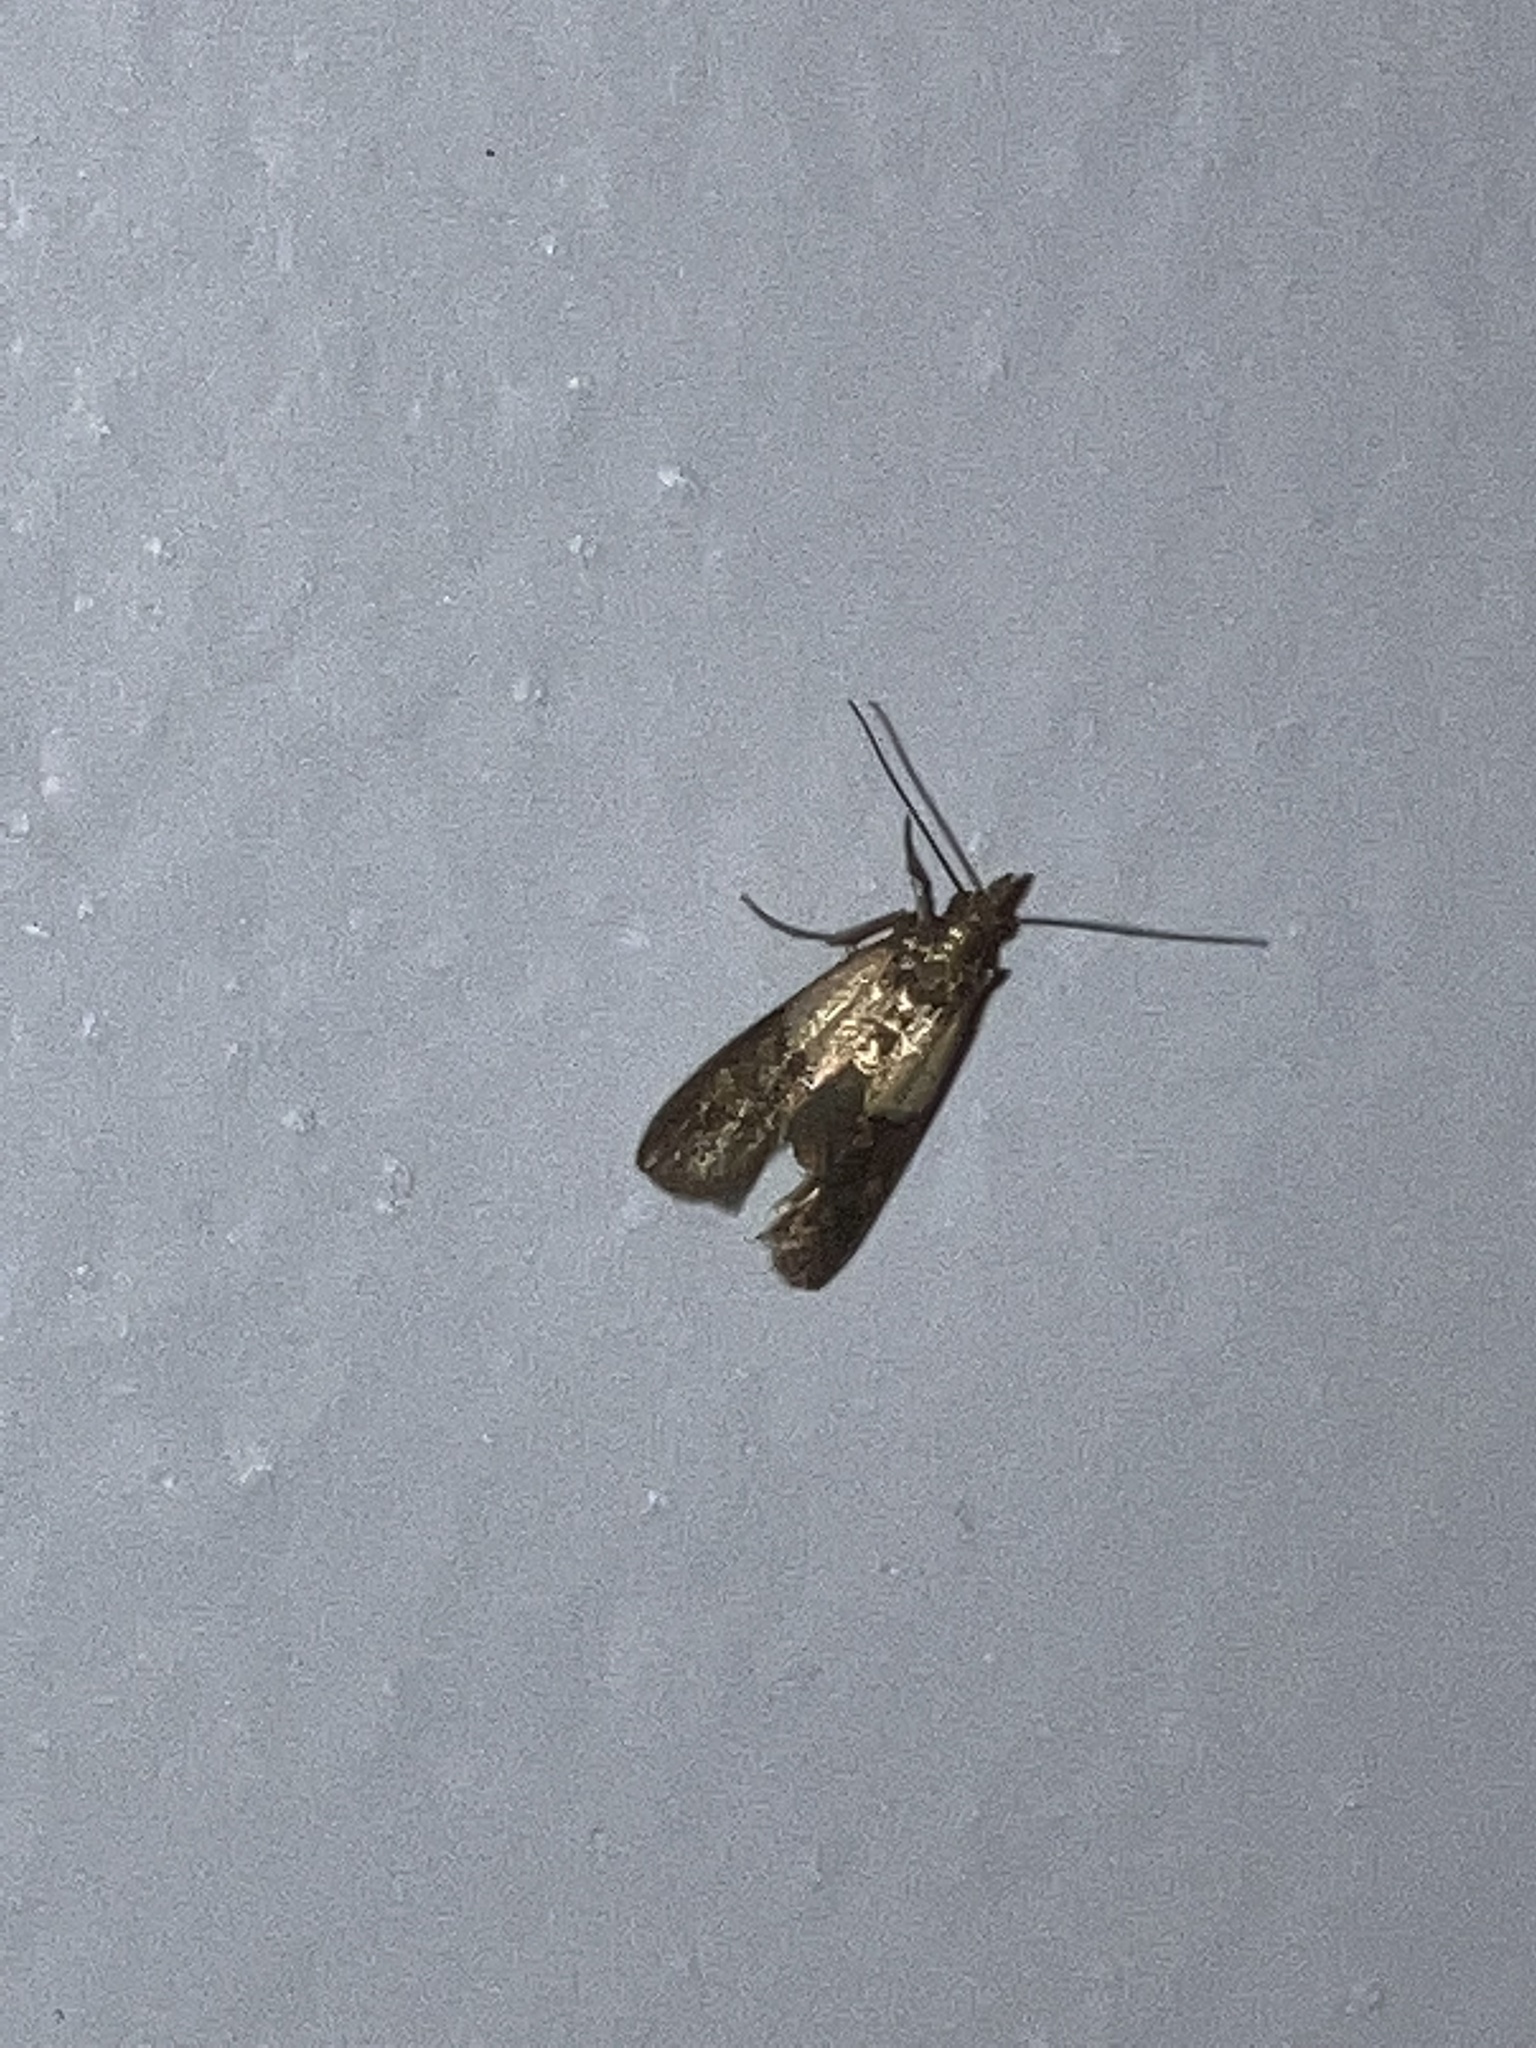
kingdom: Animalia
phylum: Arthropoda
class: Insecta
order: Lepidoptera
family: Pyralidae
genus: Plodia
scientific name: Plodia interpunctella
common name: Indian meal moth
